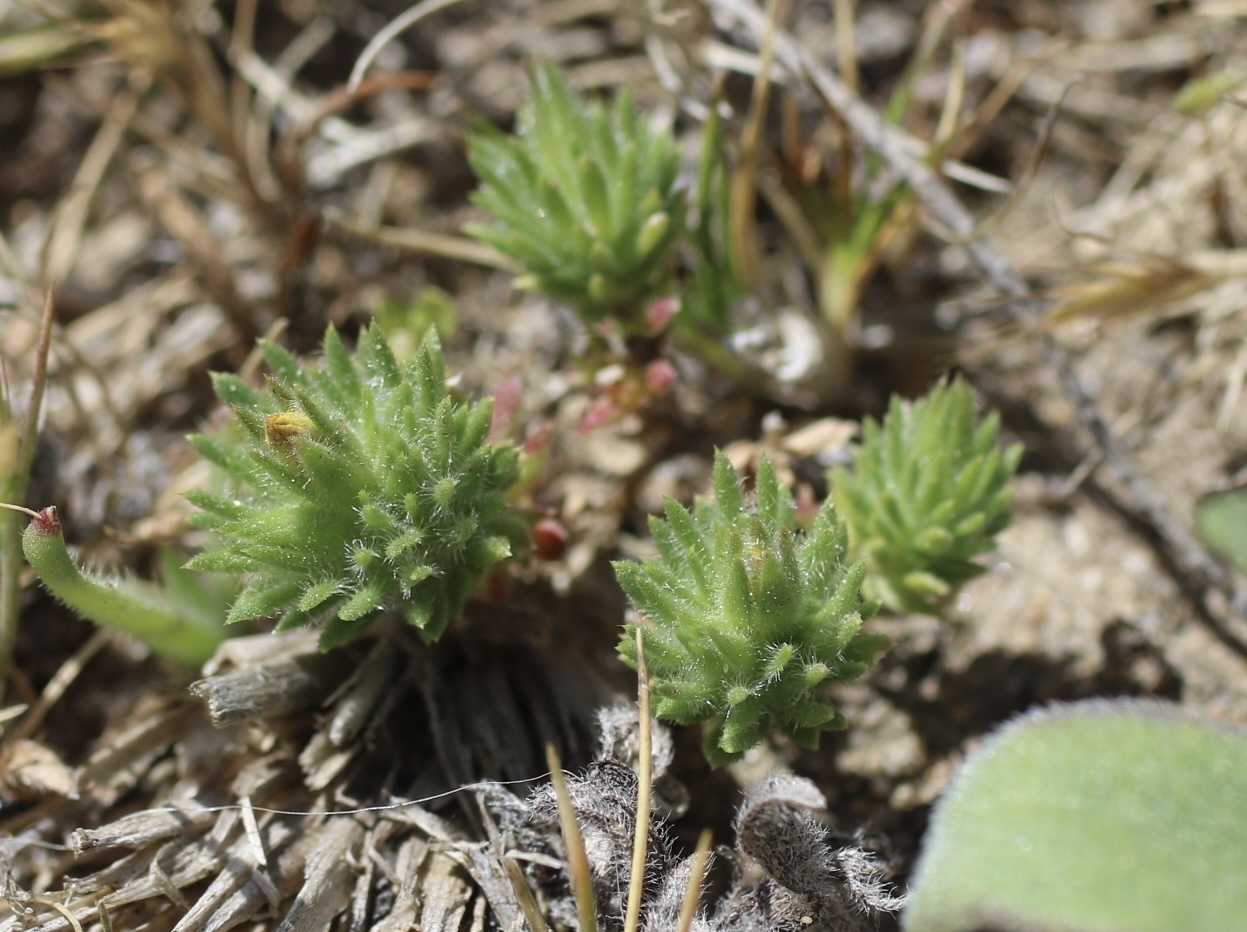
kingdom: Plantae
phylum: Tracheophyta
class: Magnoliopsida
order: Ericales
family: Polemoniaceae
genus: Leptosiphon
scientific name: Leptosiphon croceus
